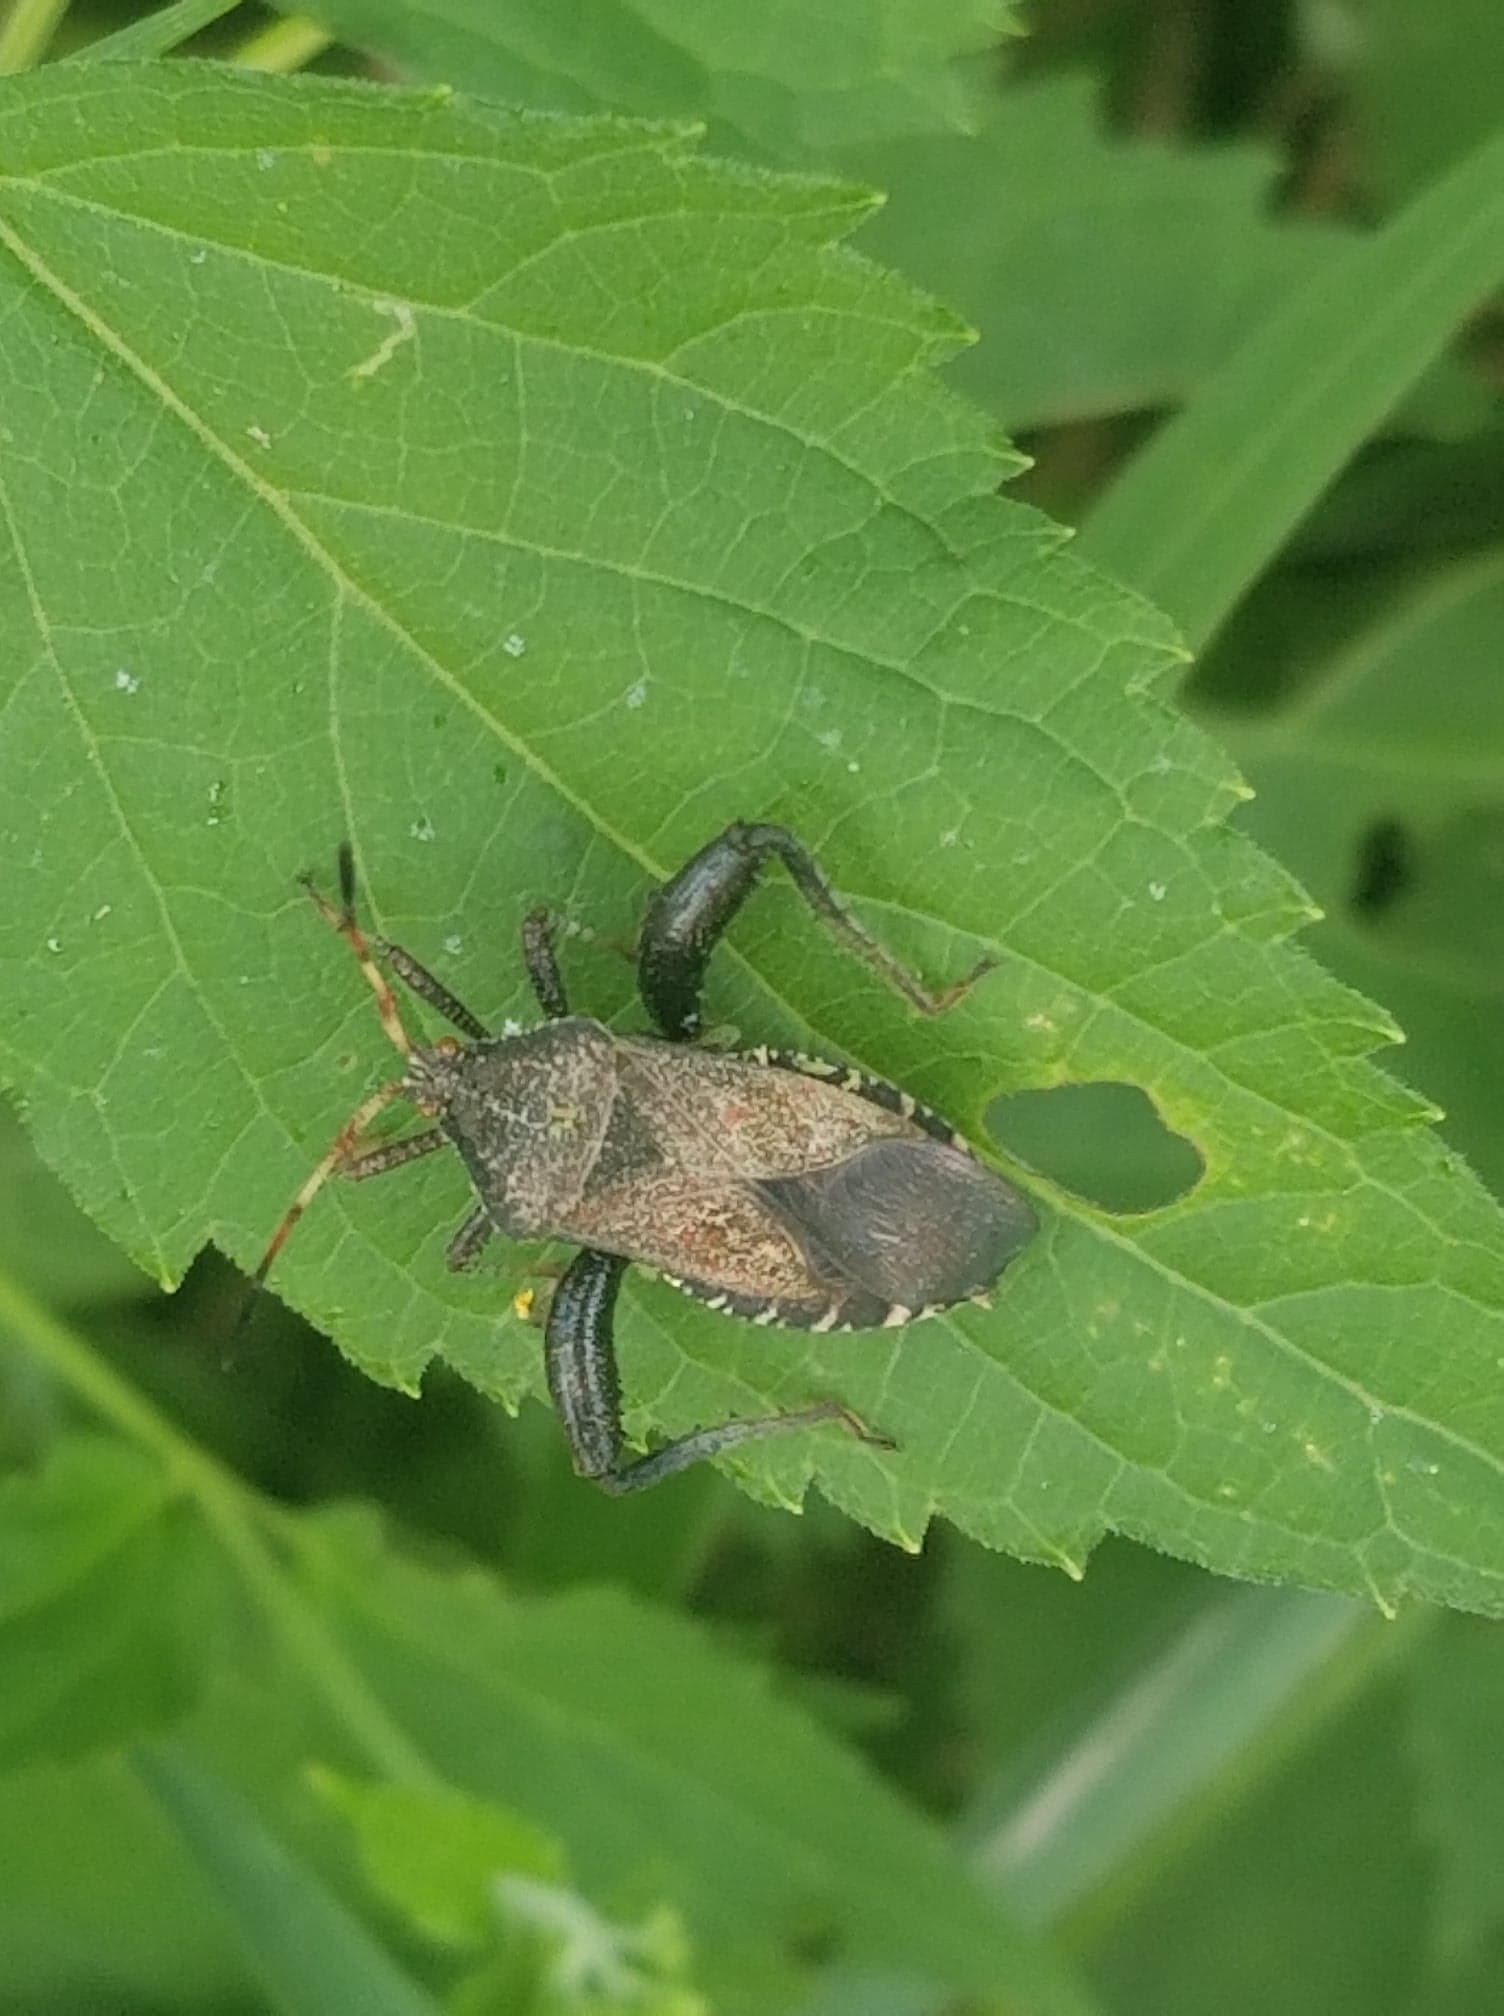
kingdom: Animalia
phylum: Arthropoda
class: Insecta
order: Hemiptera
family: Coreidae
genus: Euthochtha
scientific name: Euthochtha galeator
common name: Helmeted squash bug
